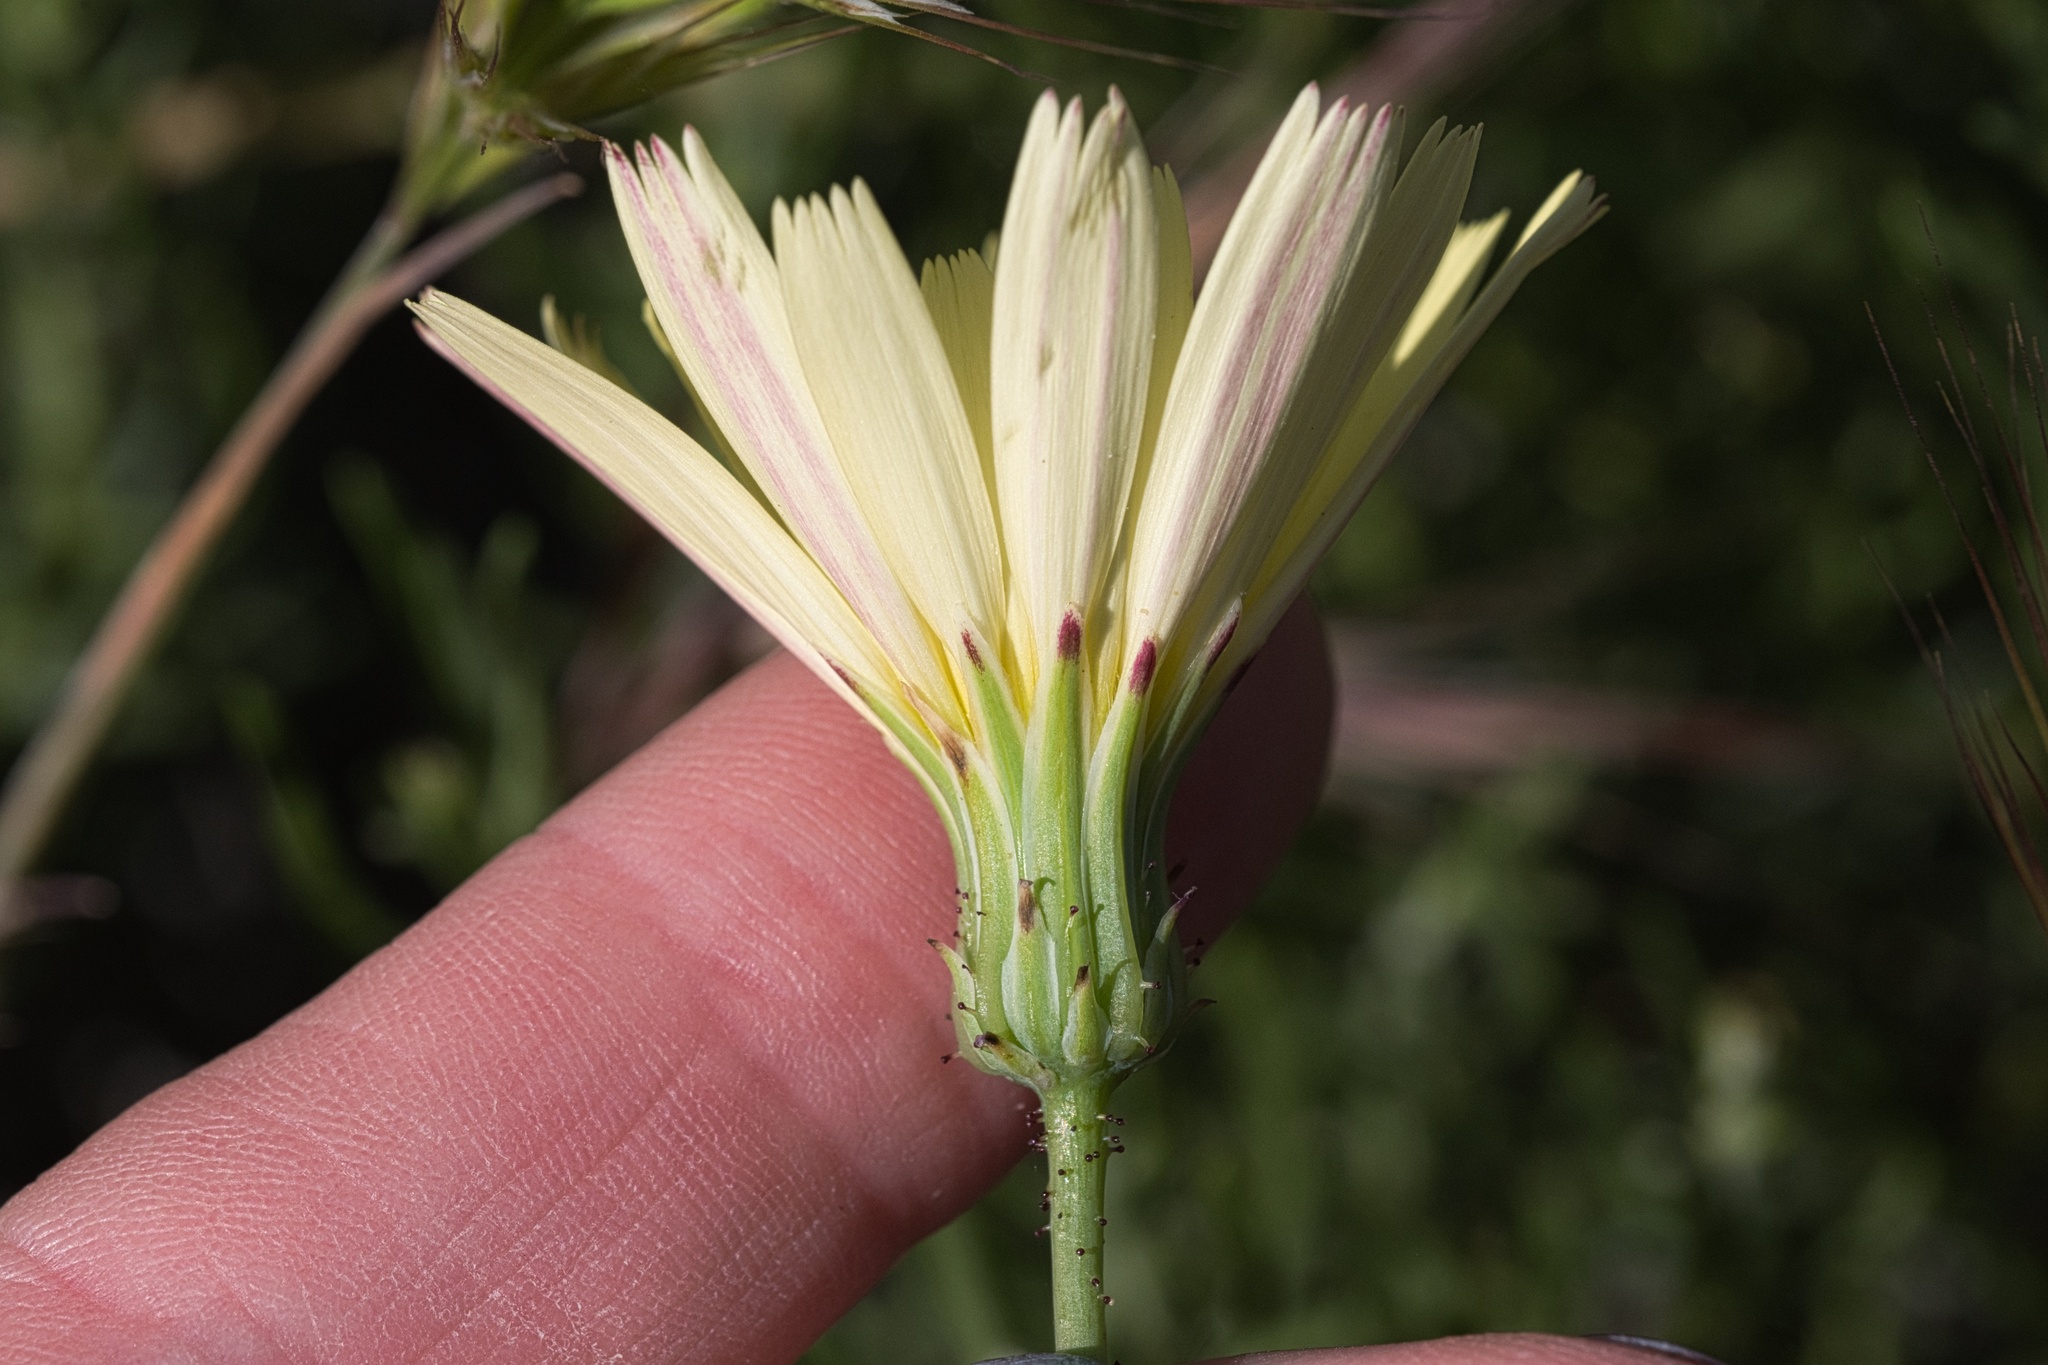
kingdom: Plantae
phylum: Tracheophyta
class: Magnoliopsida
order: Asterales
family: Asteraceae
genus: Calycoseris
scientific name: Calycoseris parryi
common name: Yellow tackstem
